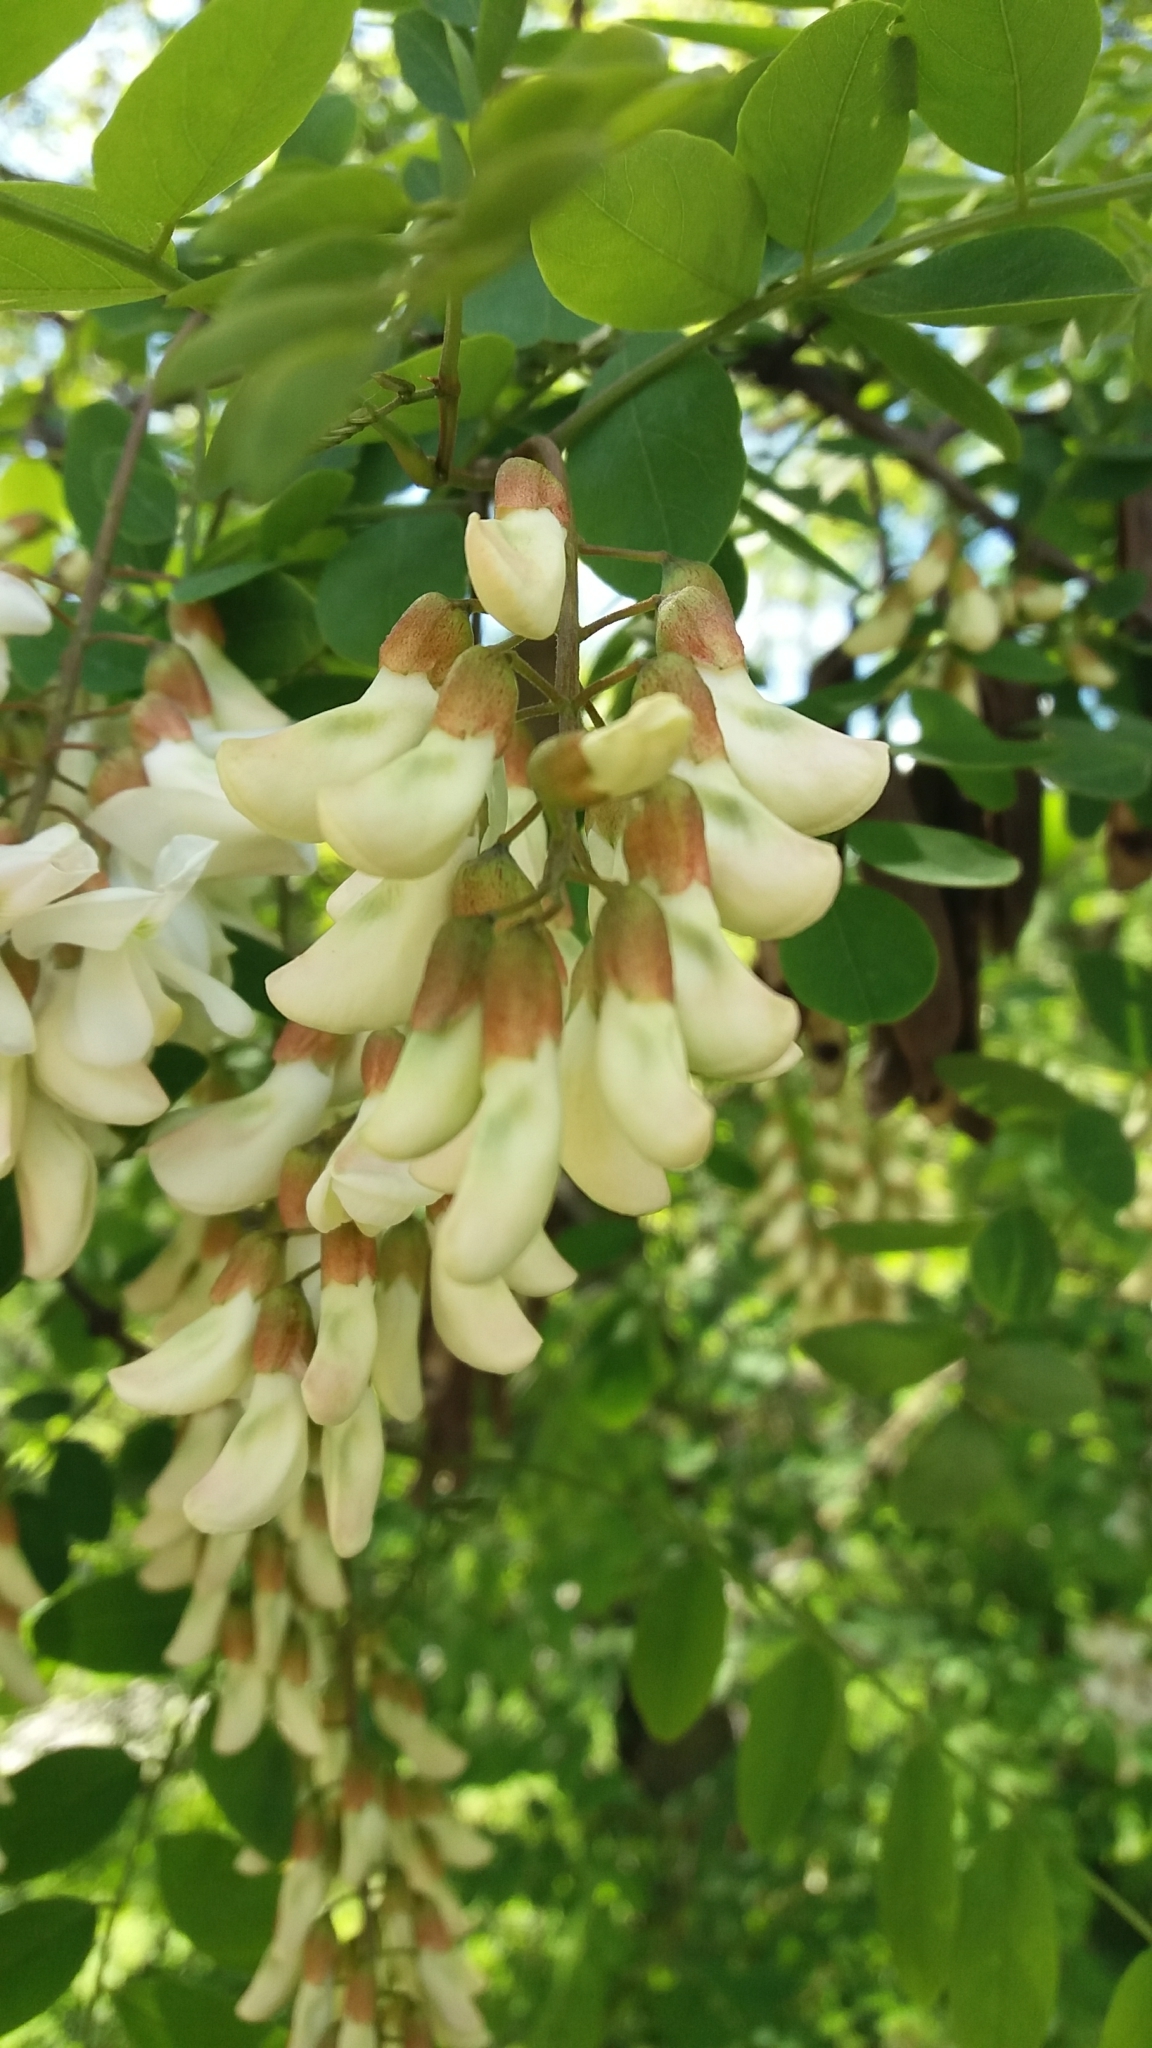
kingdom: Plantae
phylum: Tracheophyta
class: Magnoliopsida
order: Fabales
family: Fabaceae
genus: Robinia
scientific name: Robinia pseudoacacia
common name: Black locust
